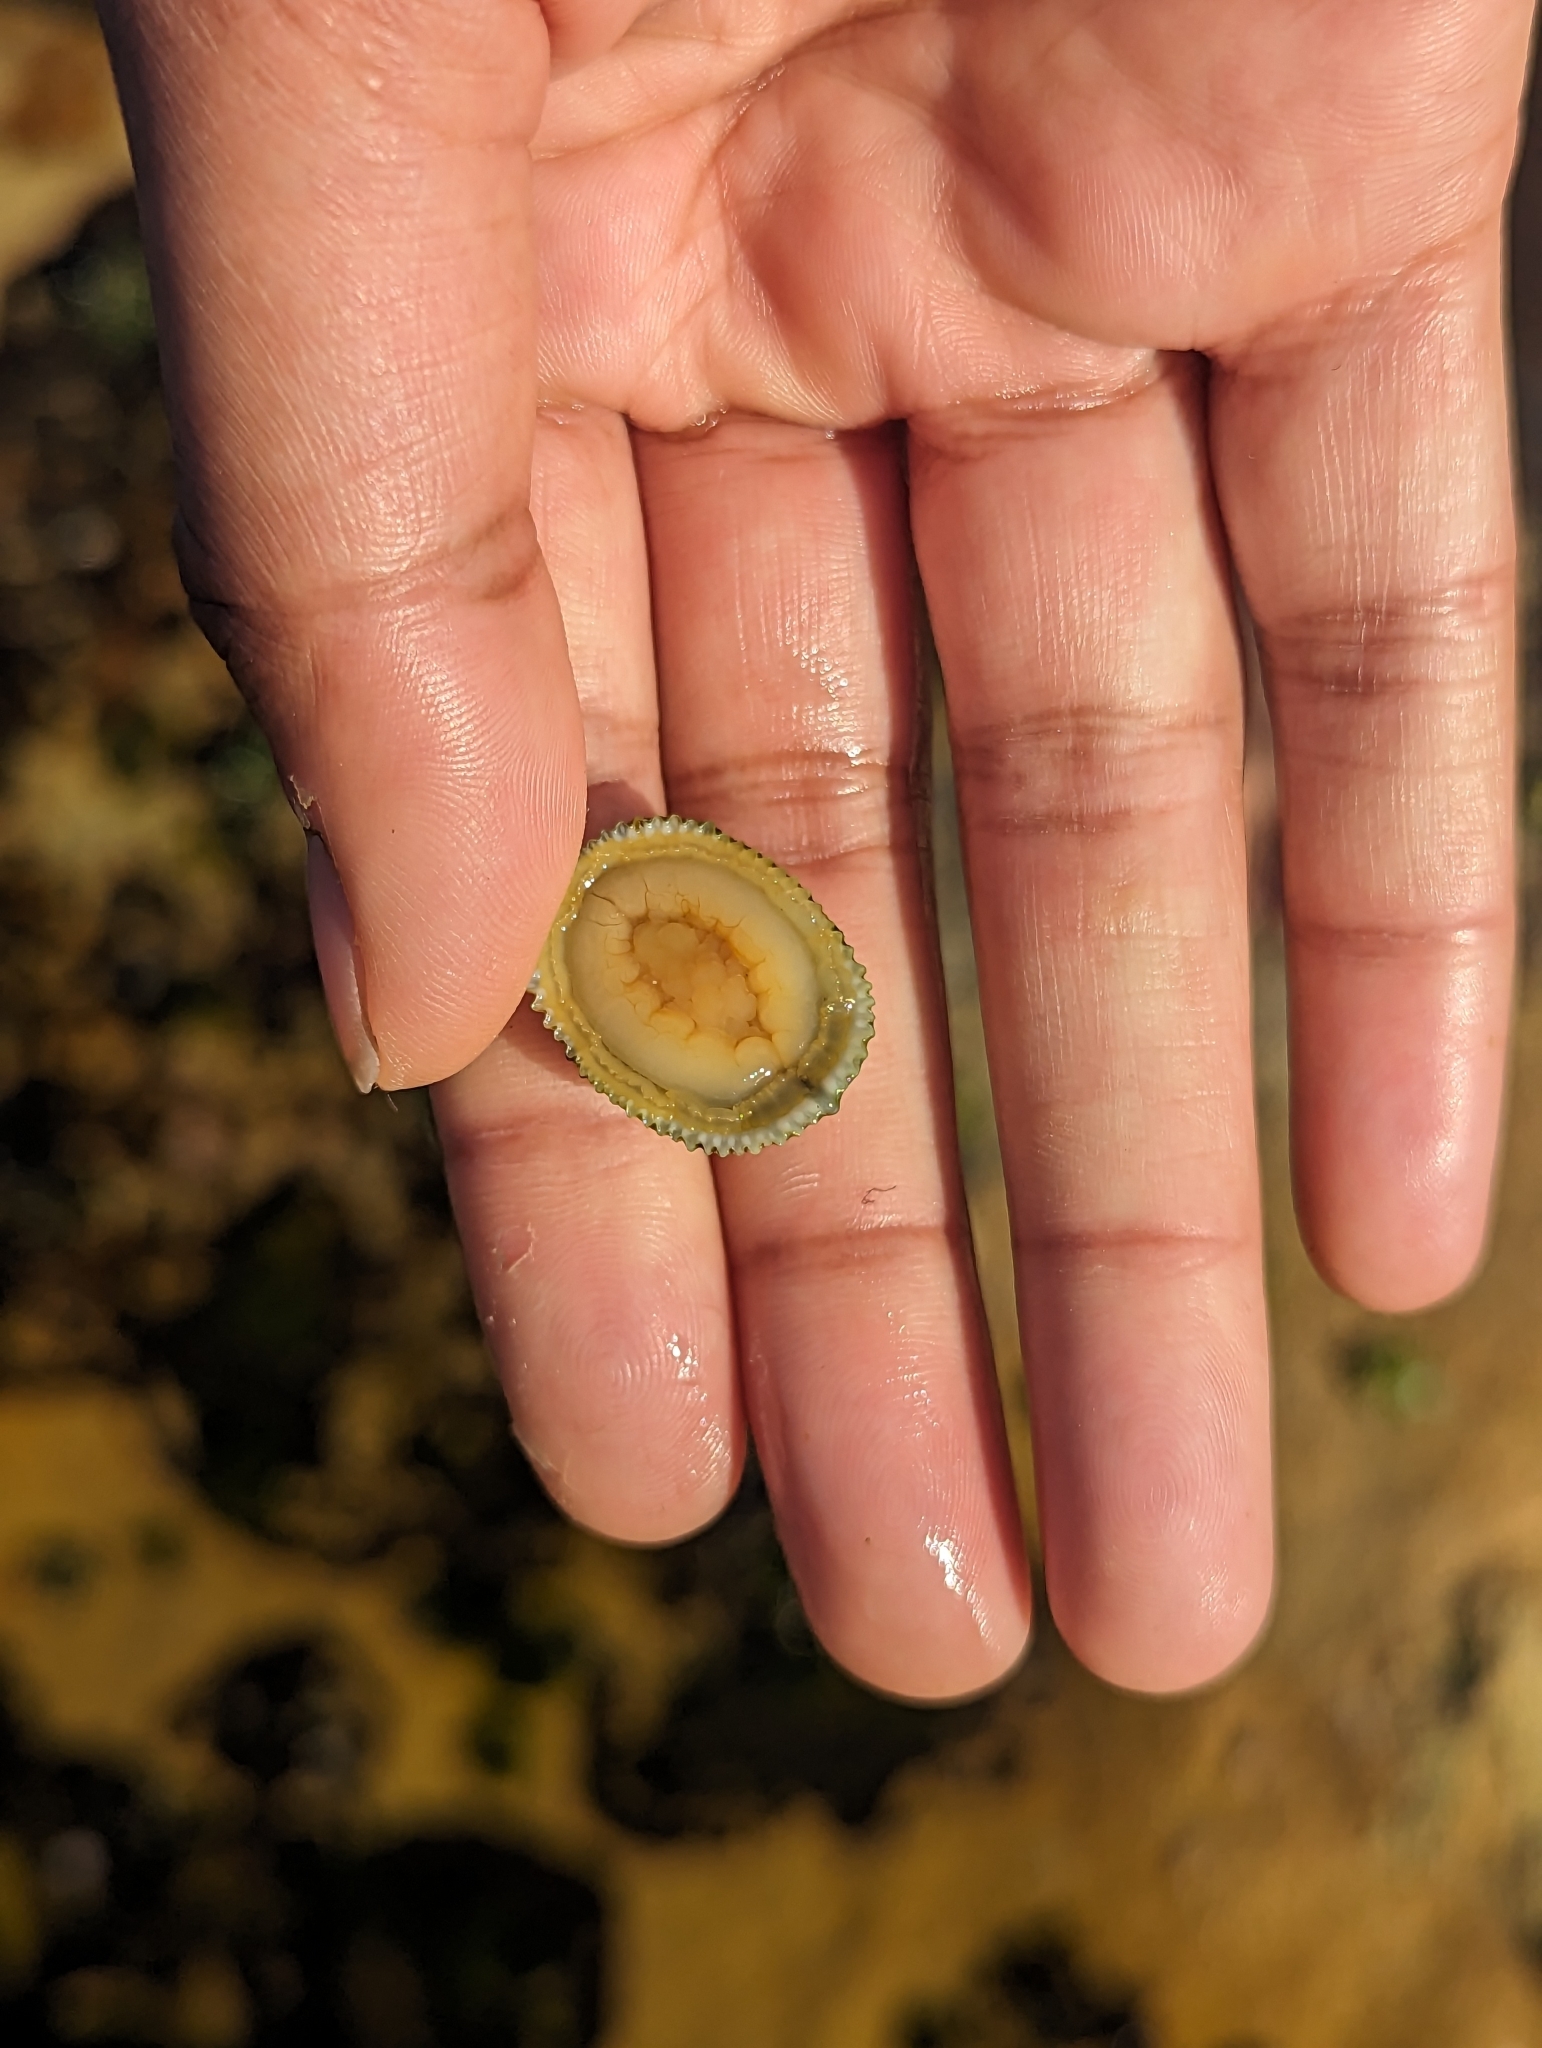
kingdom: Animalia
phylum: Mollusca
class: Gastropoda
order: Lepetellida
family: Fissurellidae
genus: Montfortula
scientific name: Montfortula rugosa
